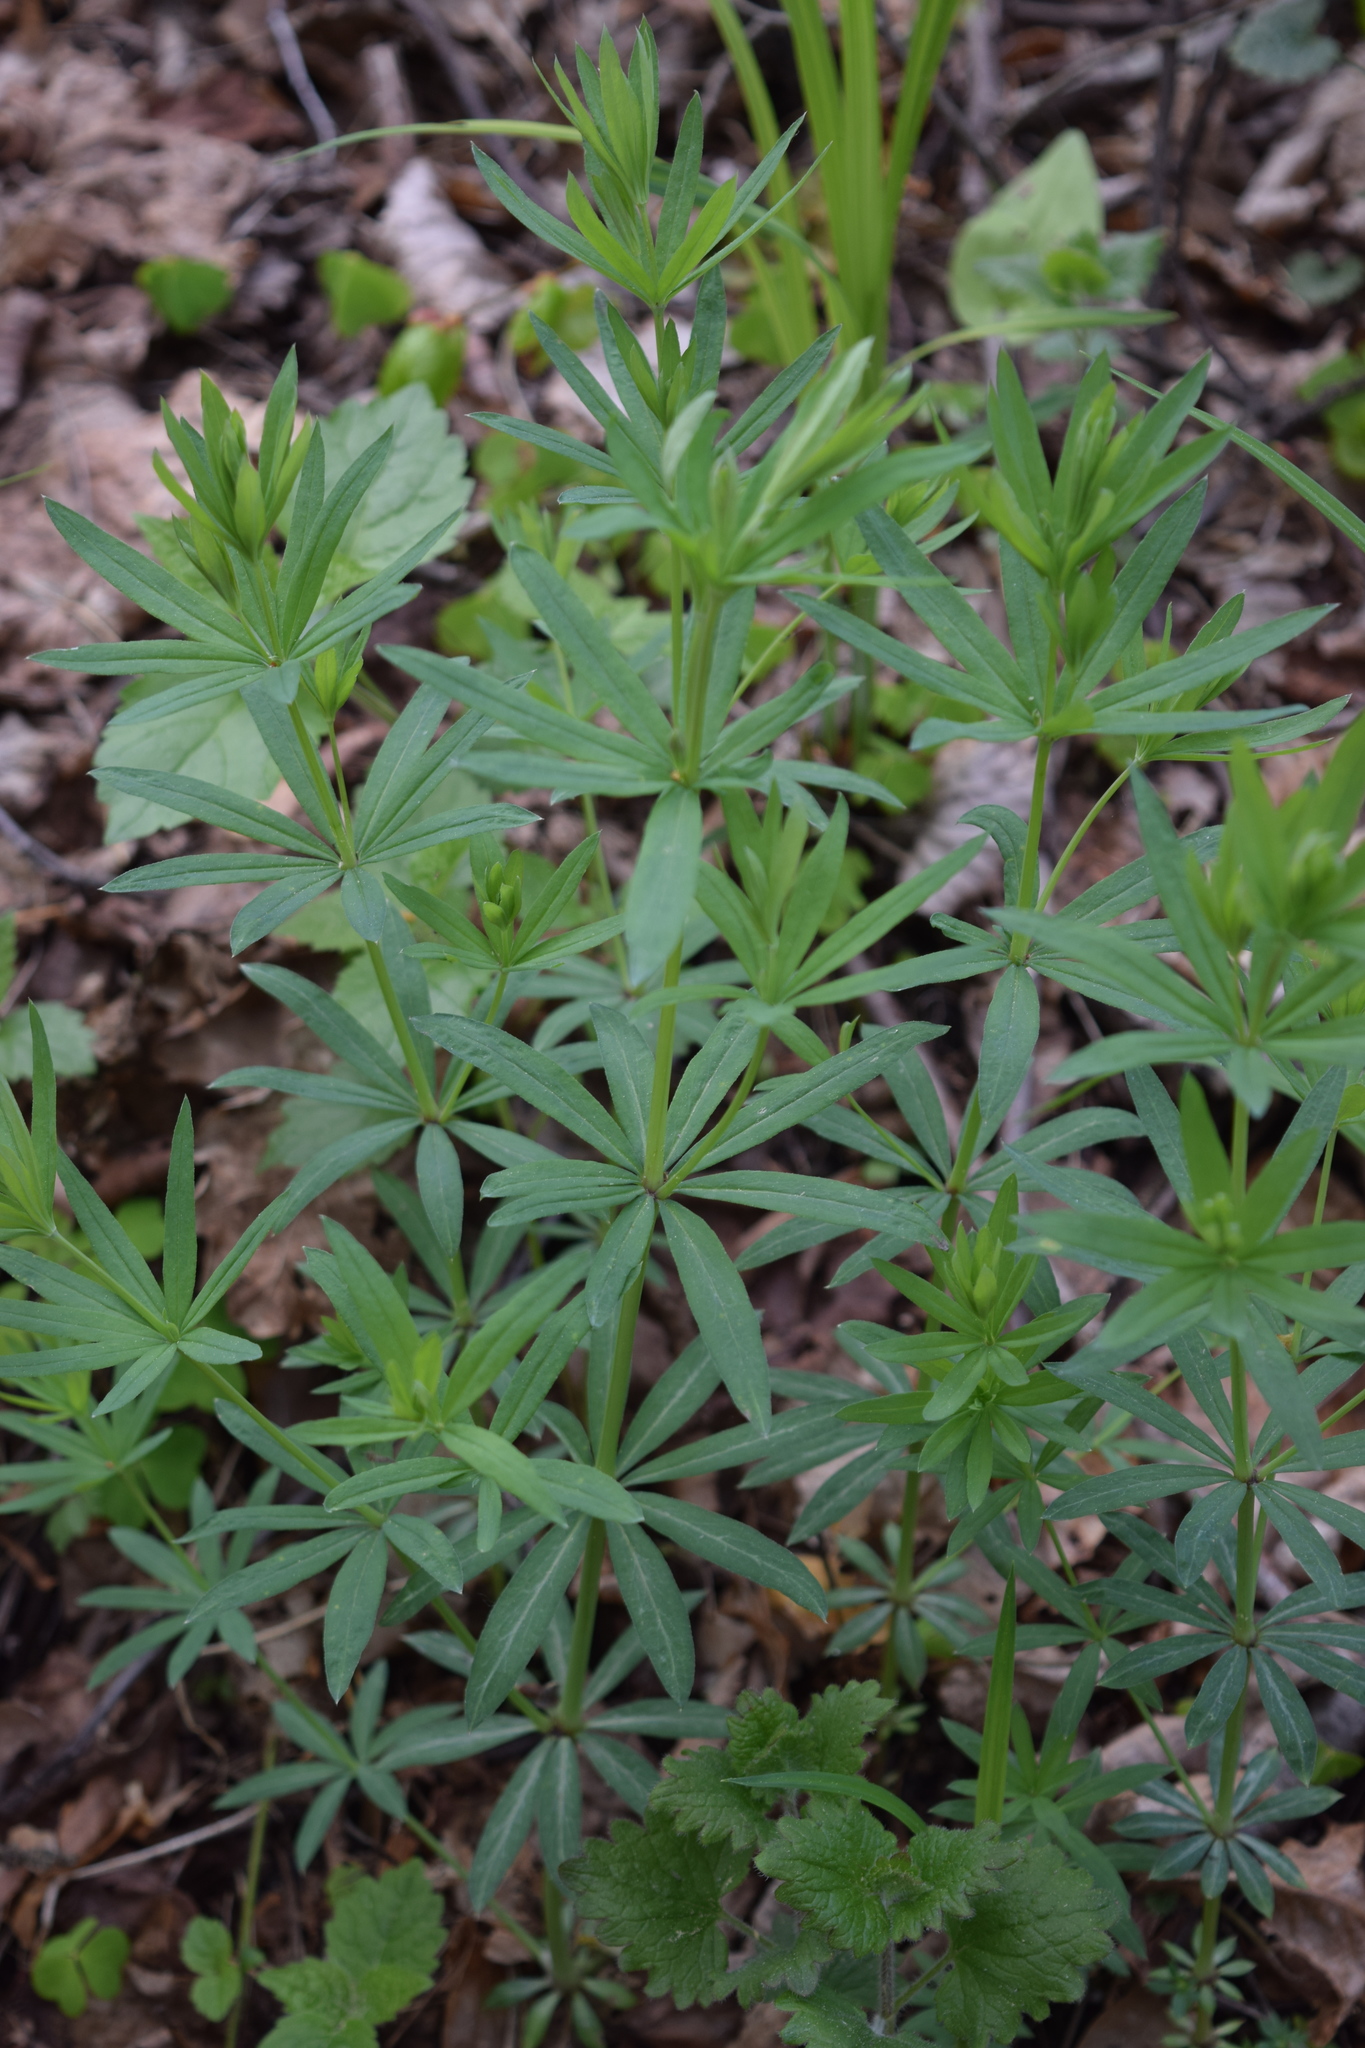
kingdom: Plantae
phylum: Tracheophyta
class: Magnoliopsida
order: Gentianales
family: Rubiaceae
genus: Galium
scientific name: Galium intermedium
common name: Bedstraw
